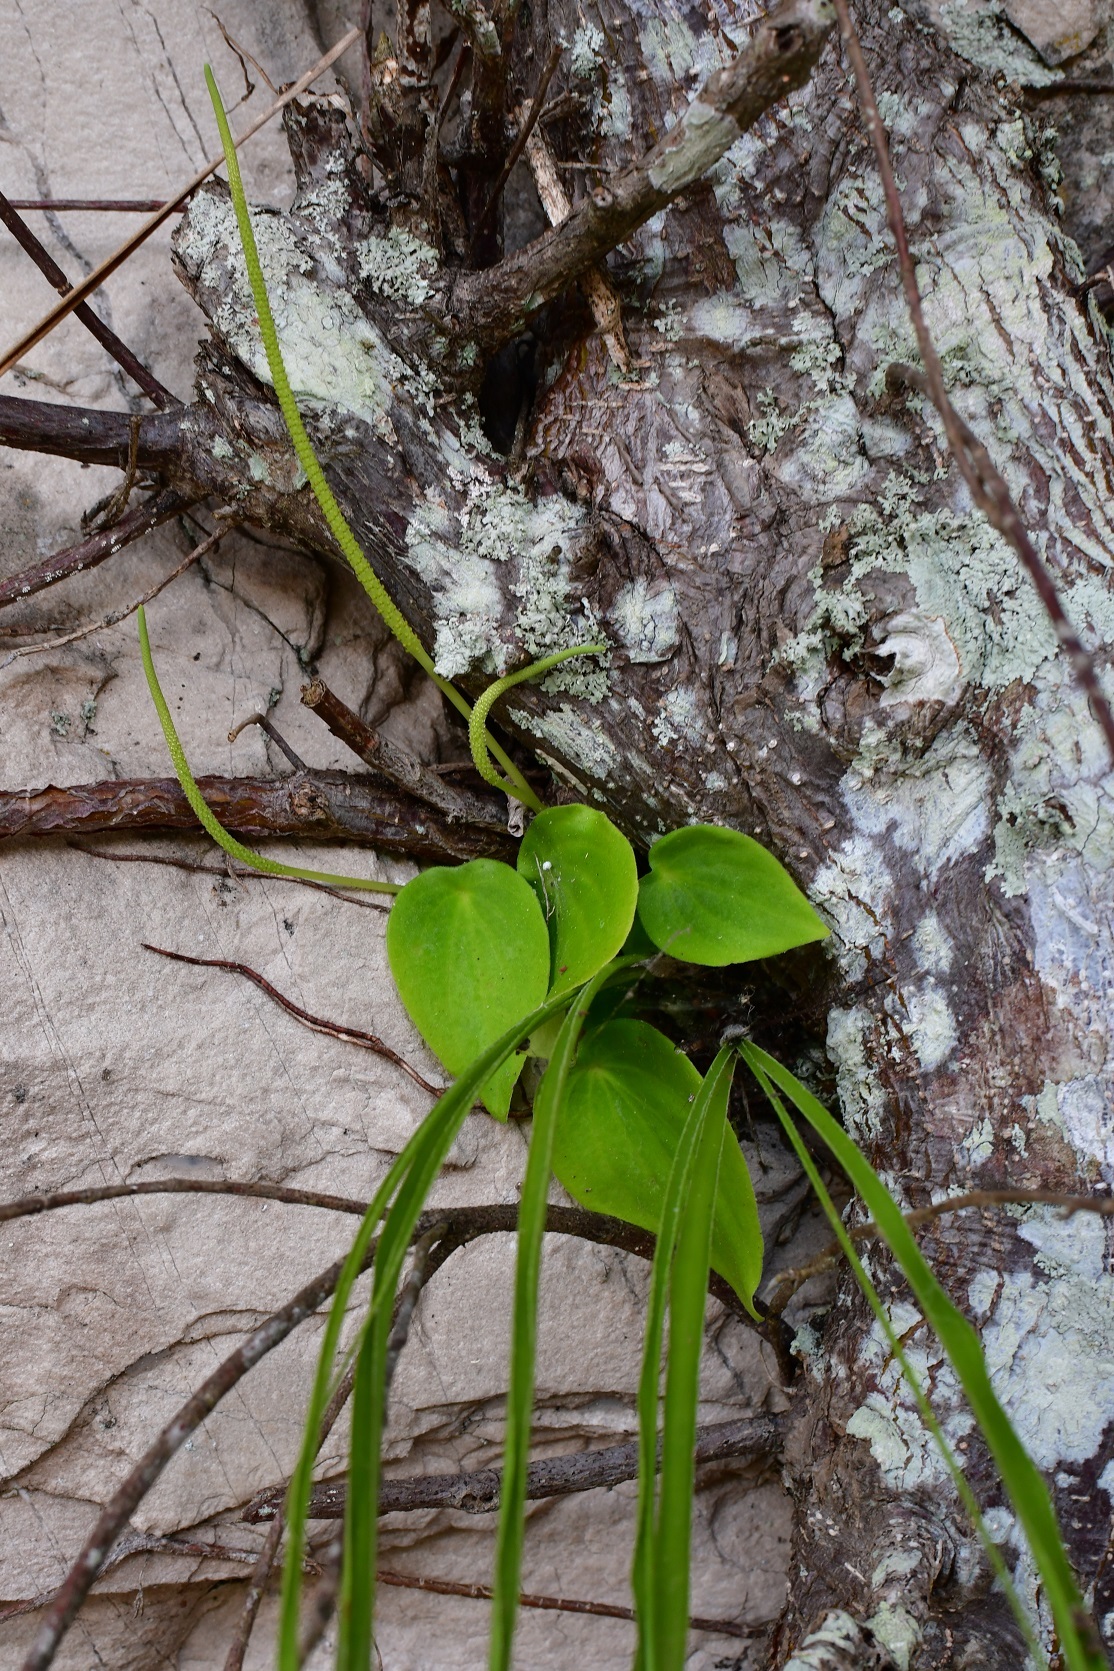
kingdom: Plantae
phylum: Tracheophyta
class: Magnoliopsida
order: Piperales
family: Piperaceae
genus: Peperomia
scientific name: Peperomia lanceolatopeltata
